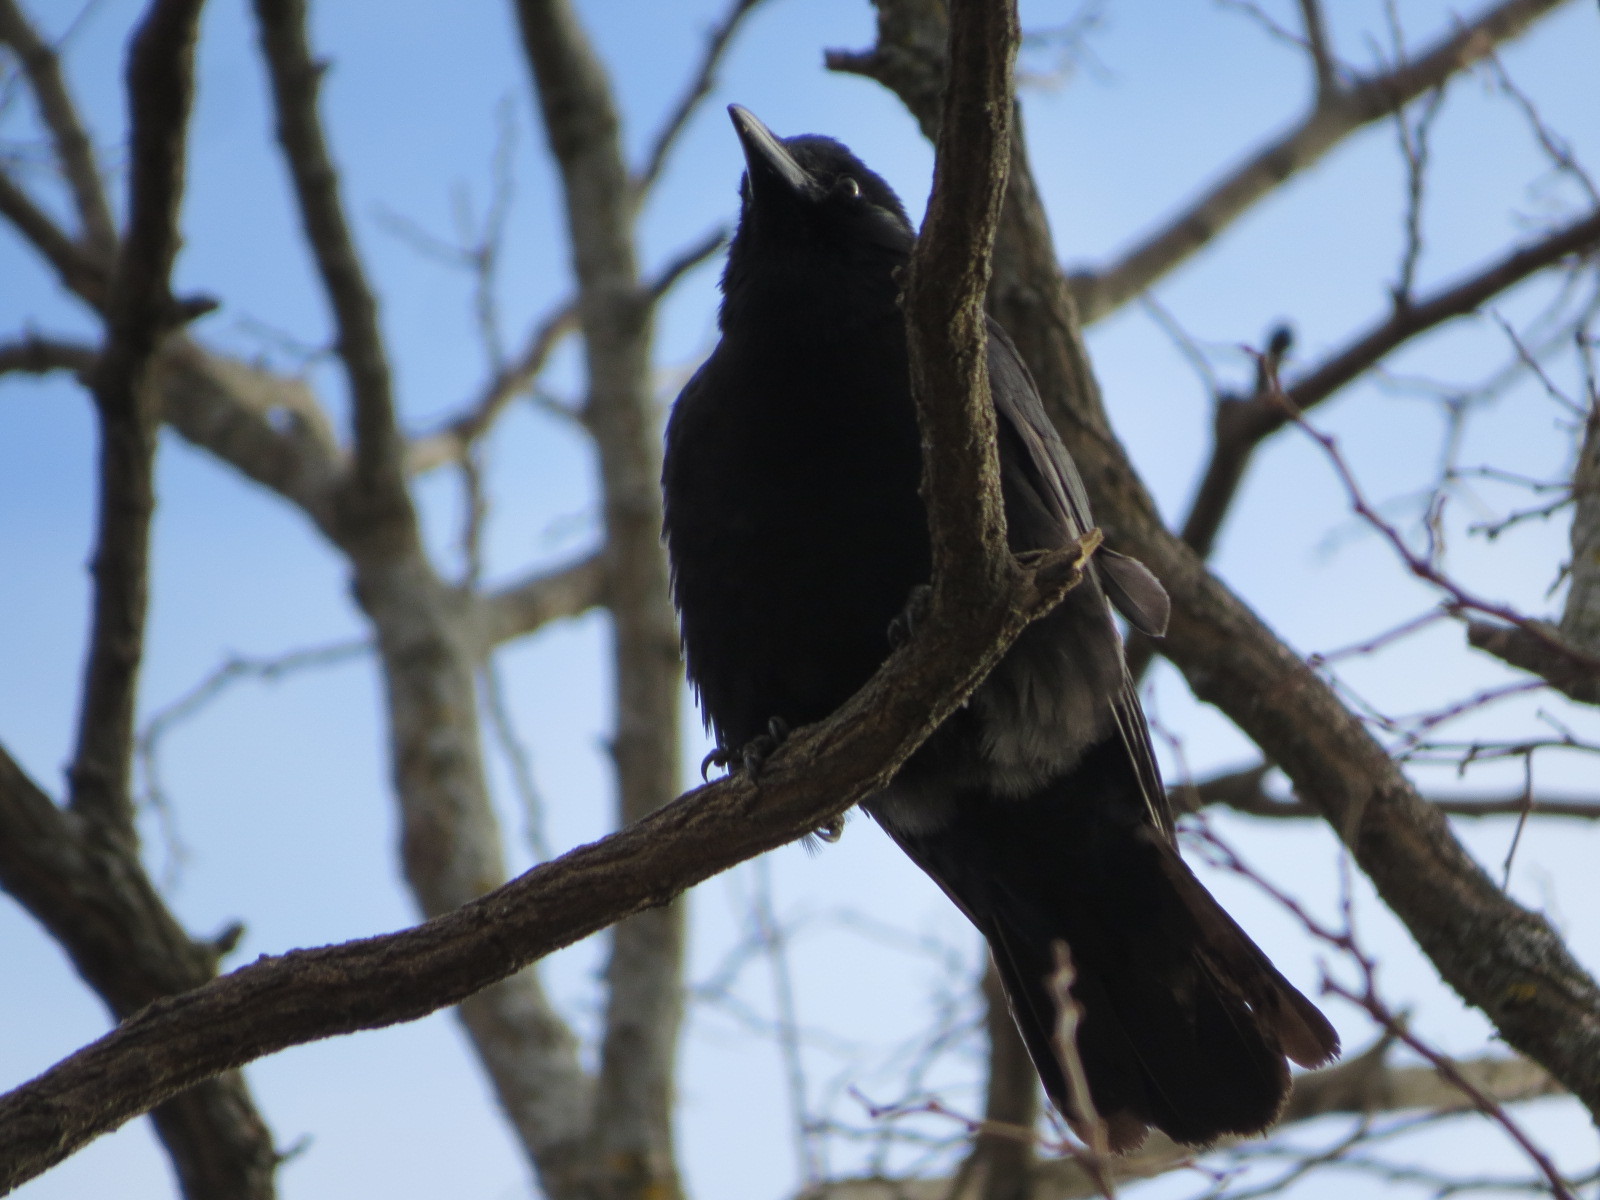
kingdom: Animalia
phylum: Chordata
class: Aves
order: Passeriformes
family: Corvidae
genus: Corvus
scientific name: Corvus brachyrhynchos
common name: American crow
